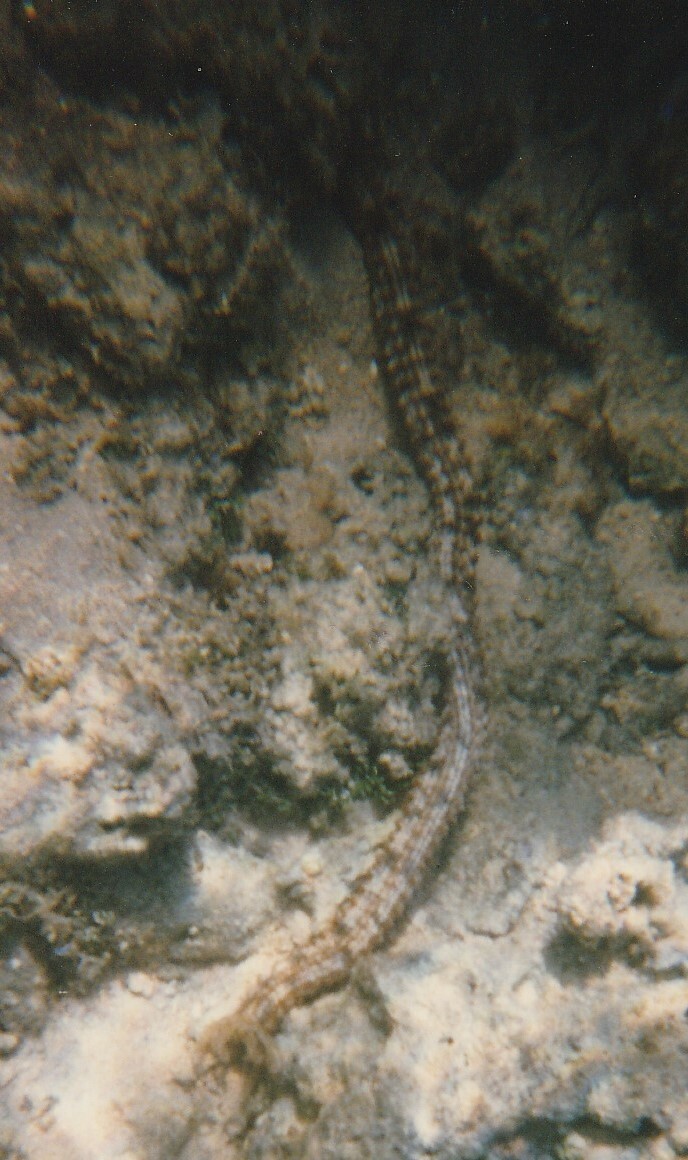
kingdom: Animalia
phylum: Echinodermata
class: Holothuroidea
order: Apodida
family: Synaptidae
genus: Synapta
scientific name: Synapta maculata
